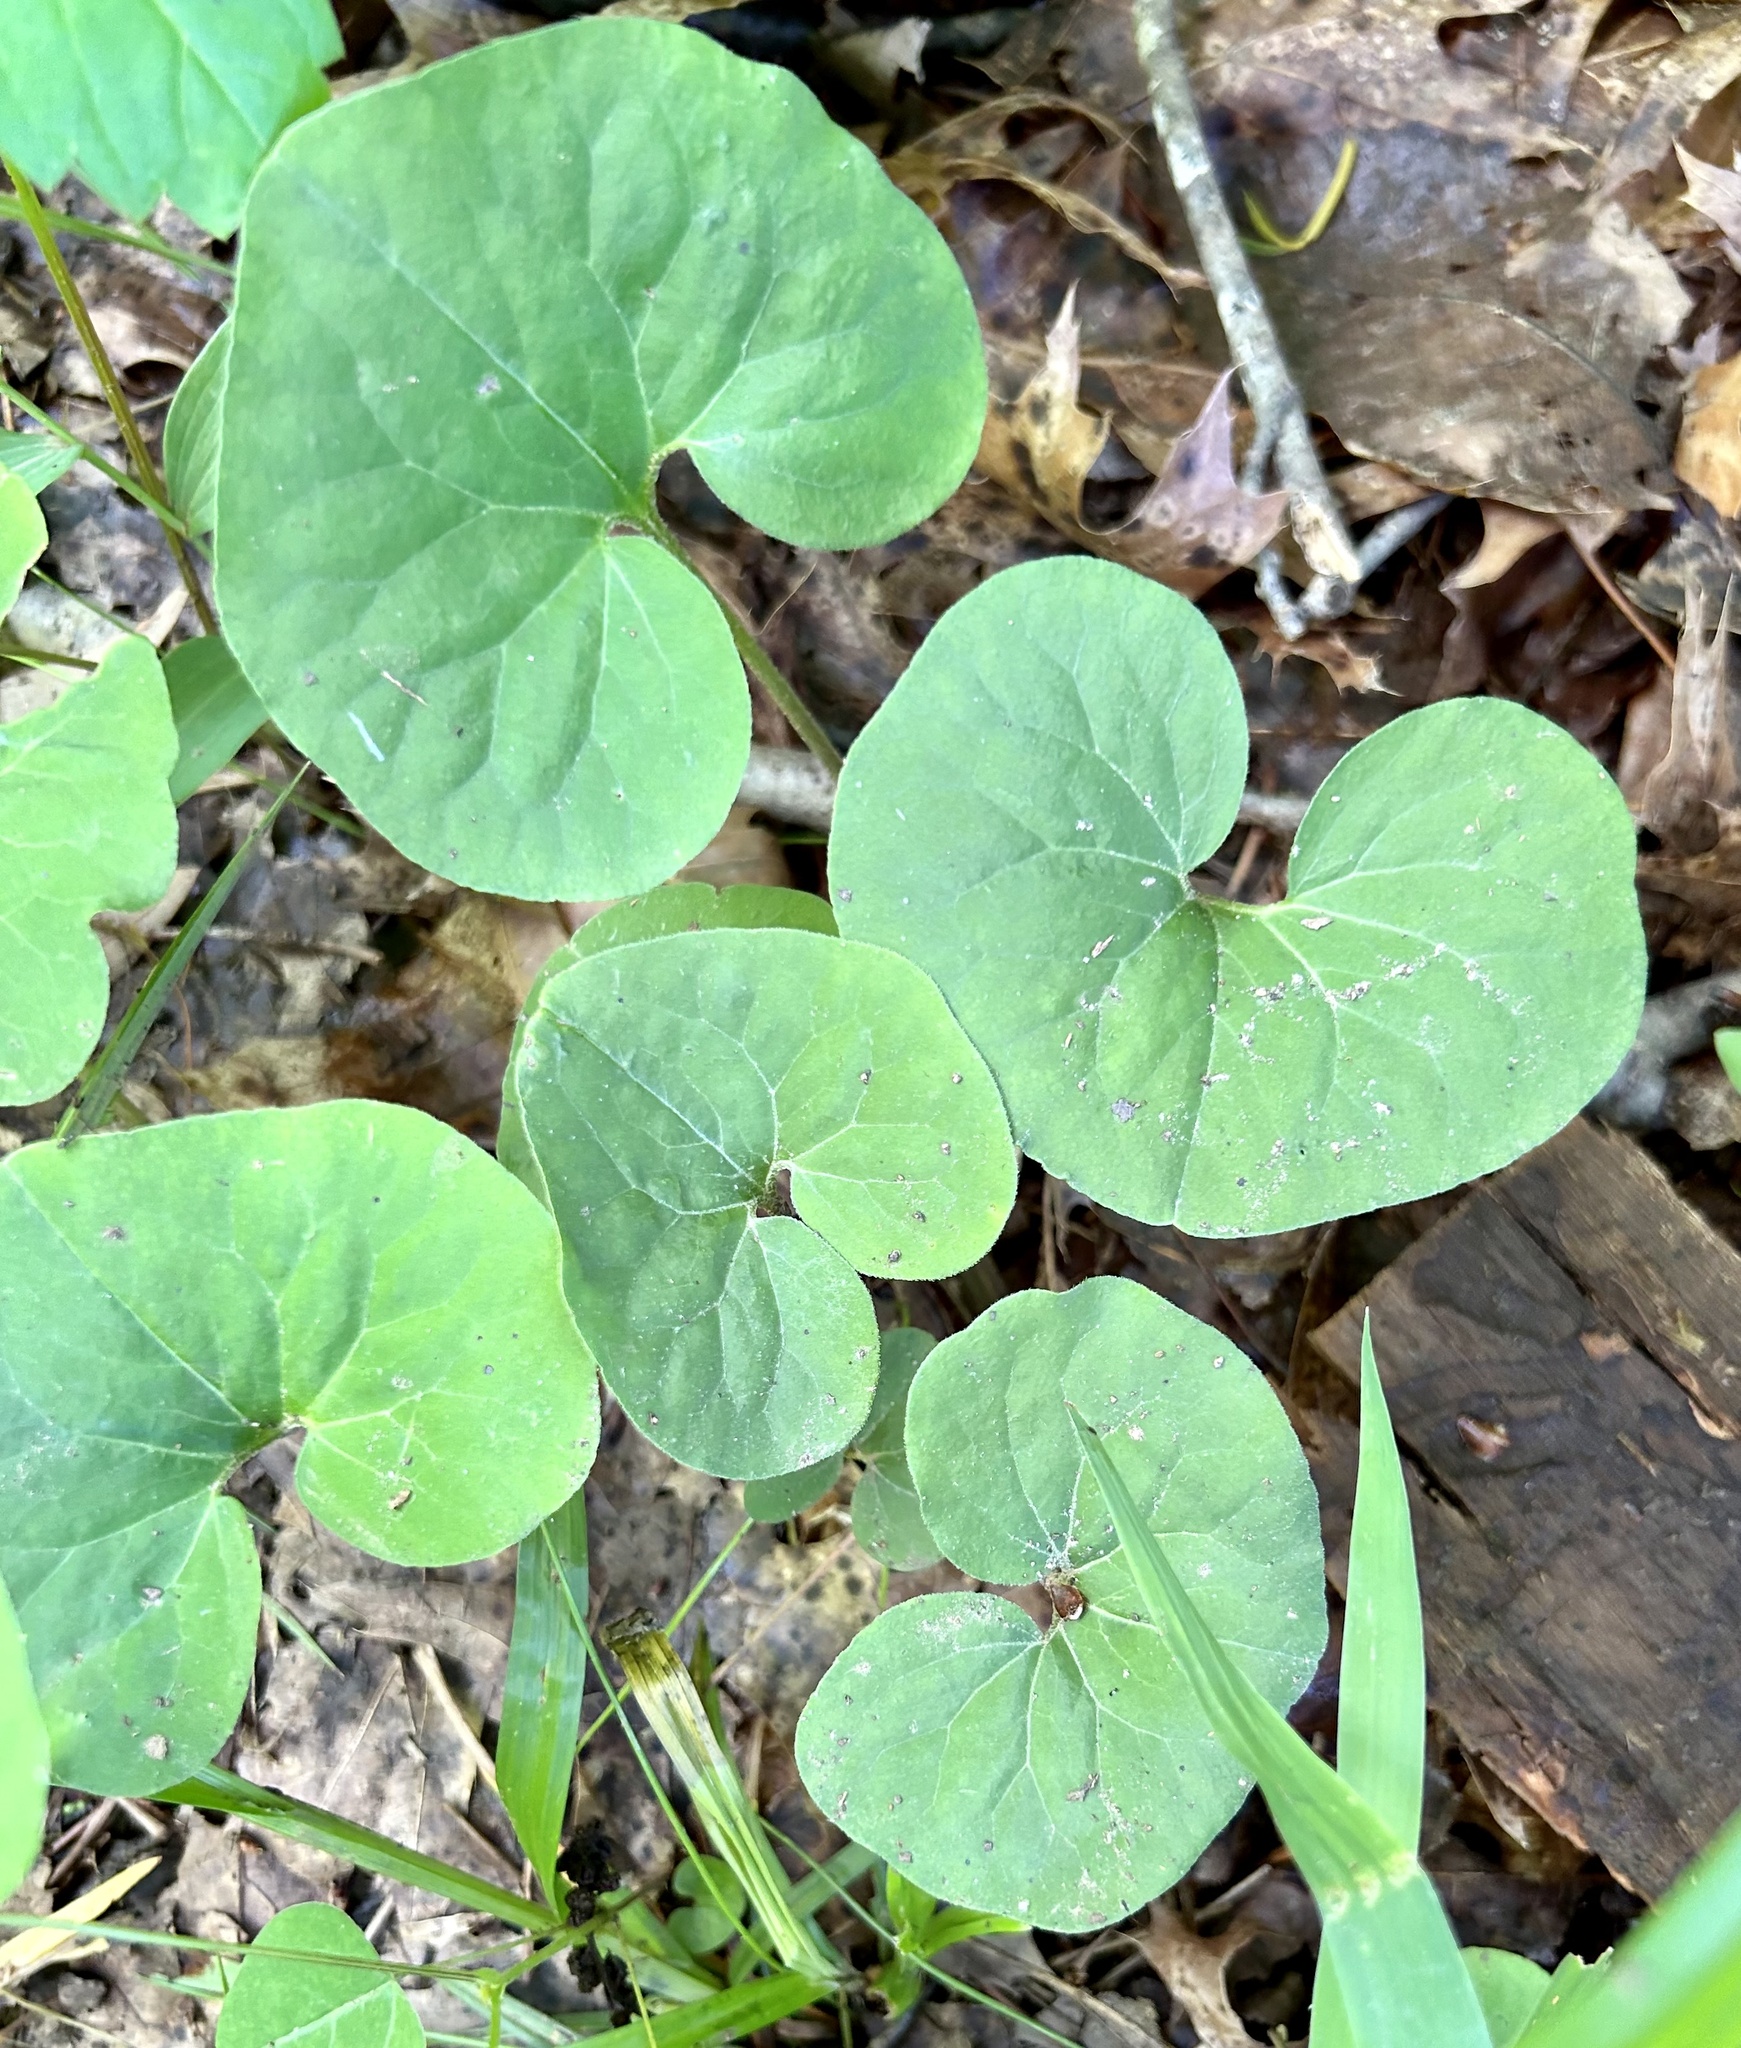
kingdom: Plantae
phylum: Tracheophyta
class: Magnoliopsida
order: Piperales
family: Aristolochiaceae
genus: Asarum
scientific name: Asarum canadense
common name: Wild ginger
